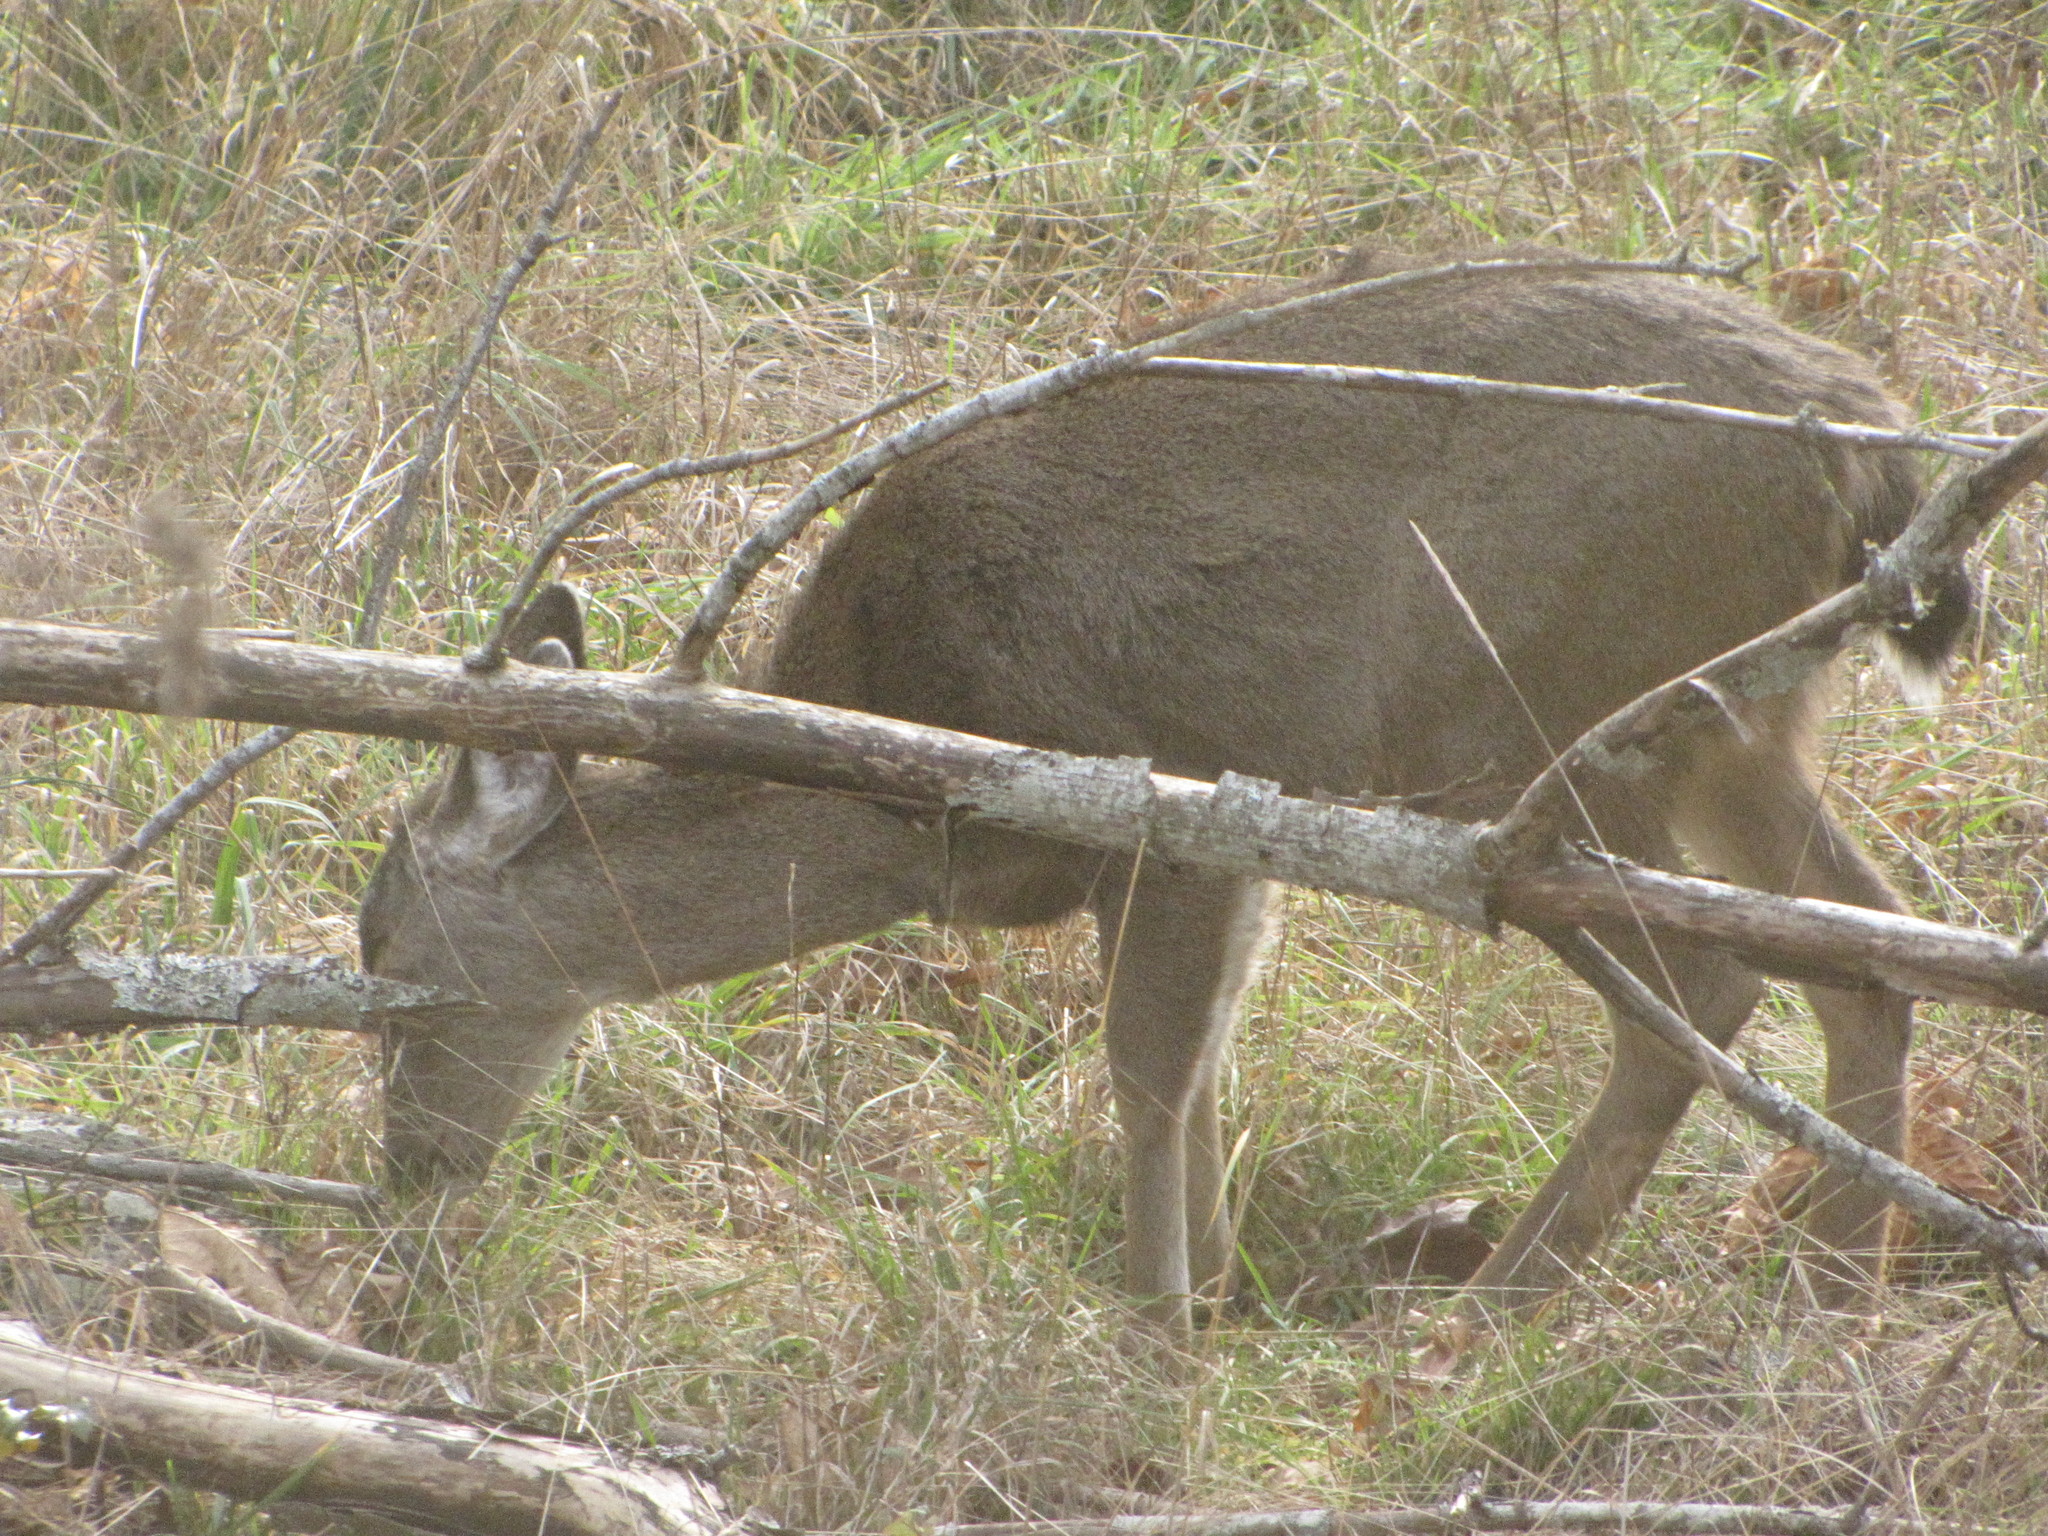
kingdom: Animalia
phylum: Chordata
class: Mammalia
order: Artiodactyla
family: Cervidae
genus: Odocoileus
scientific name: Odocoileus hemionus
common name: Mule deer
